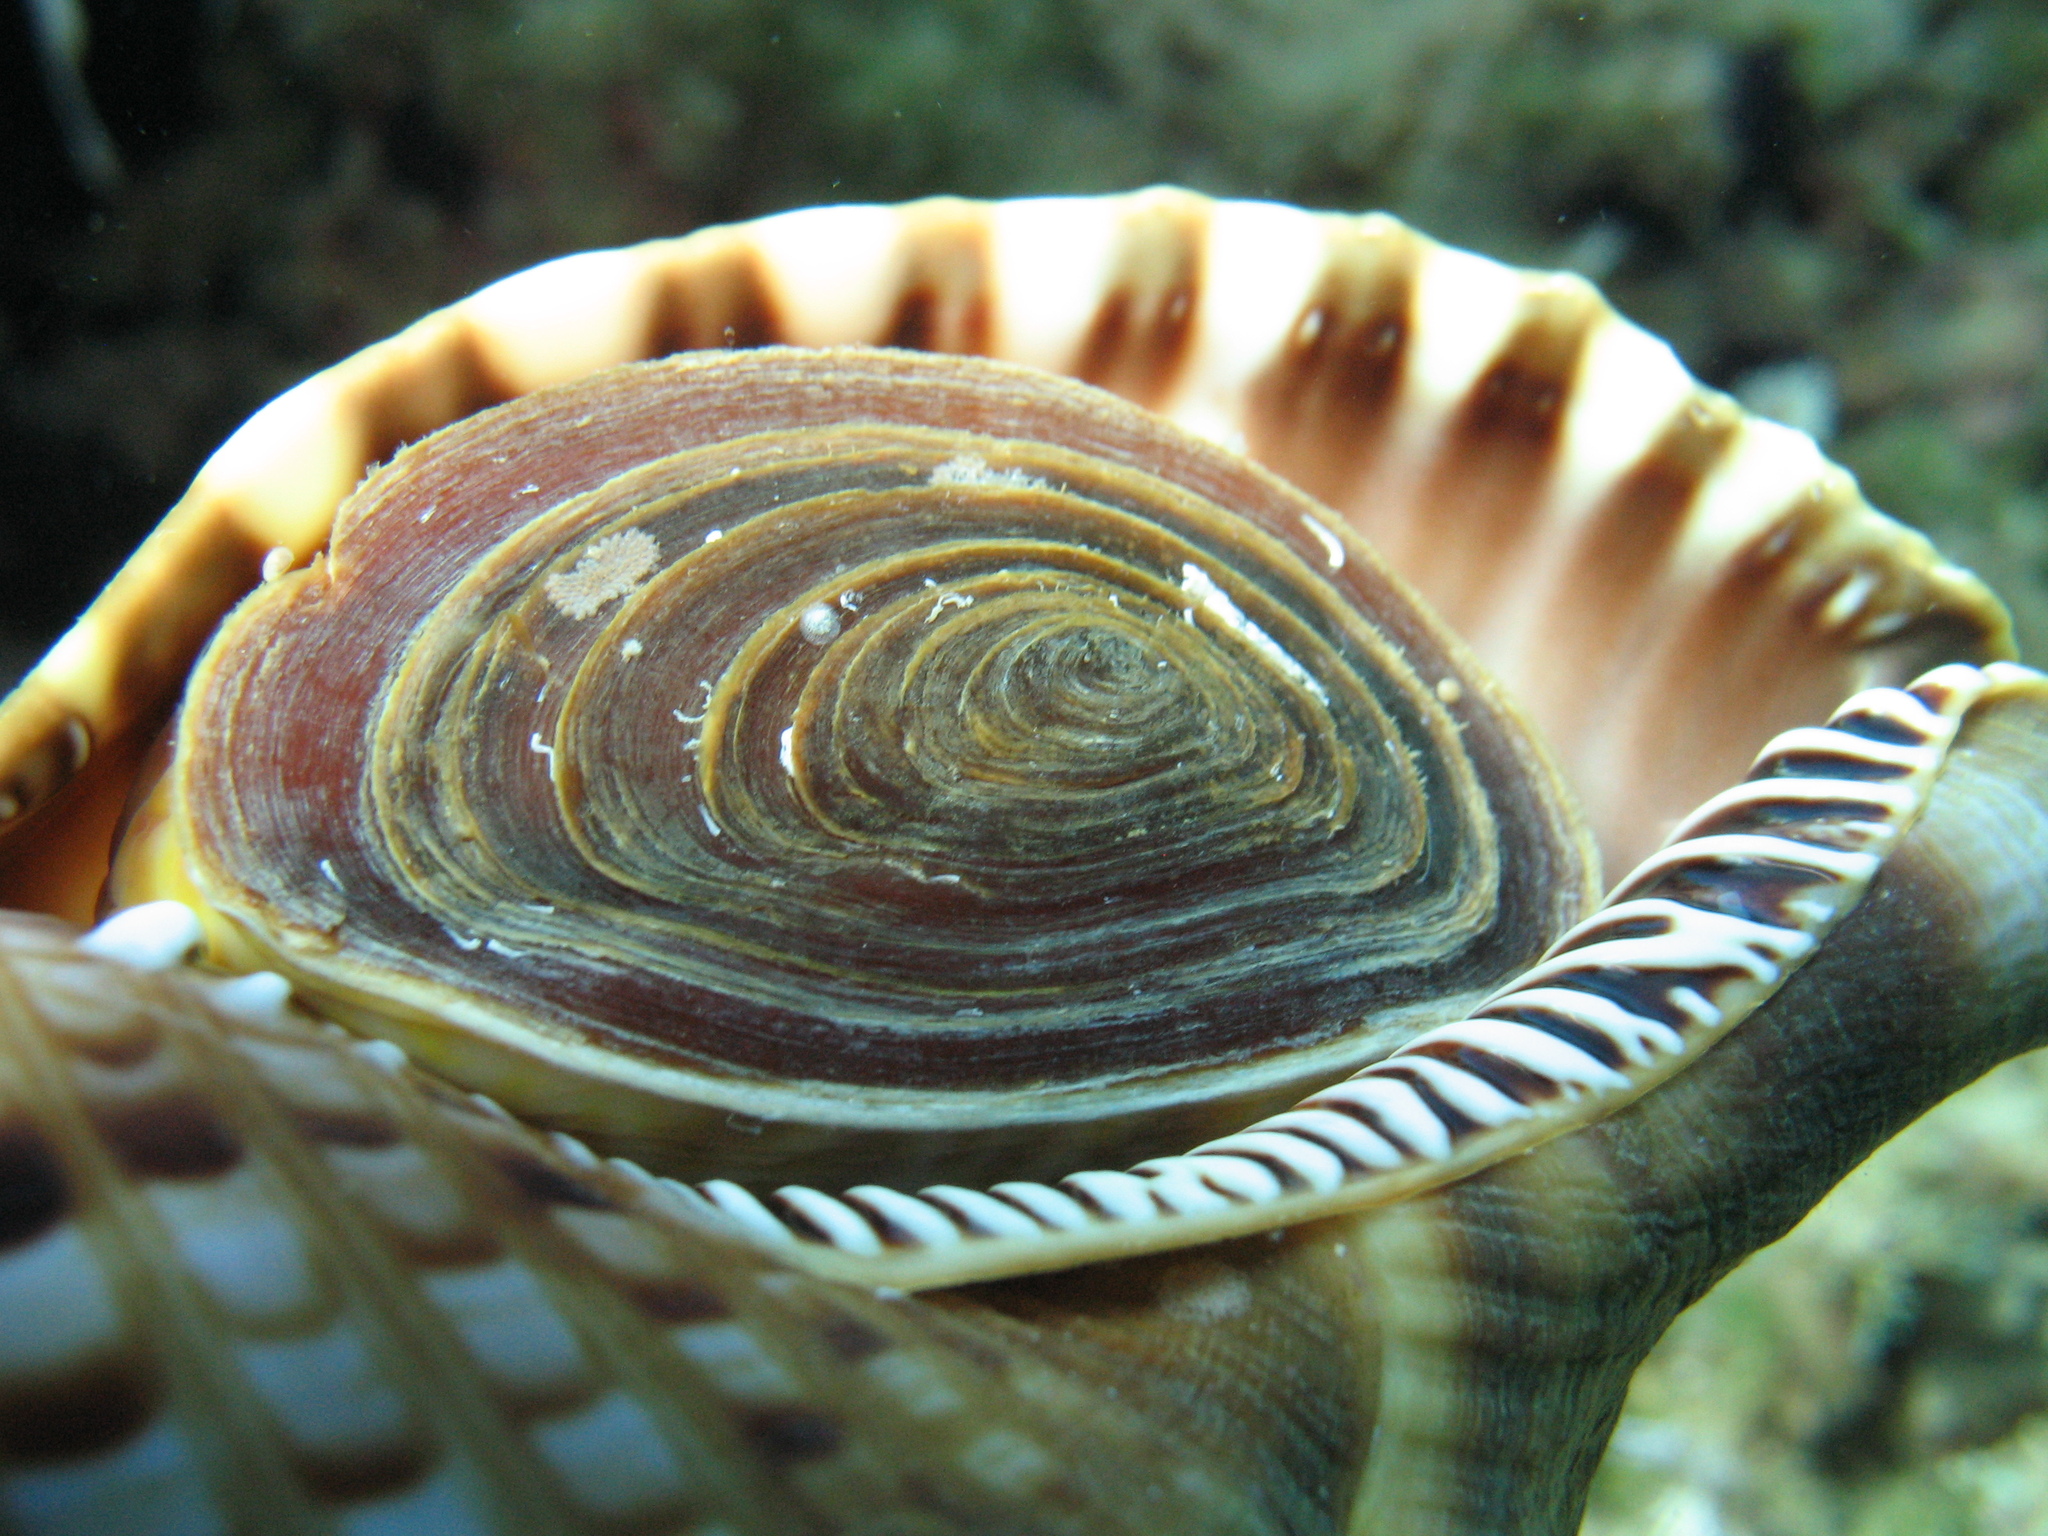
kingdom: Animalia
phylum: Mollusca
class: Gastropoda
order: Littorinimorpha
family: Charoniidae
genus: Charonia
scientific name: Charonia variegata
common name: Atlantic triton
